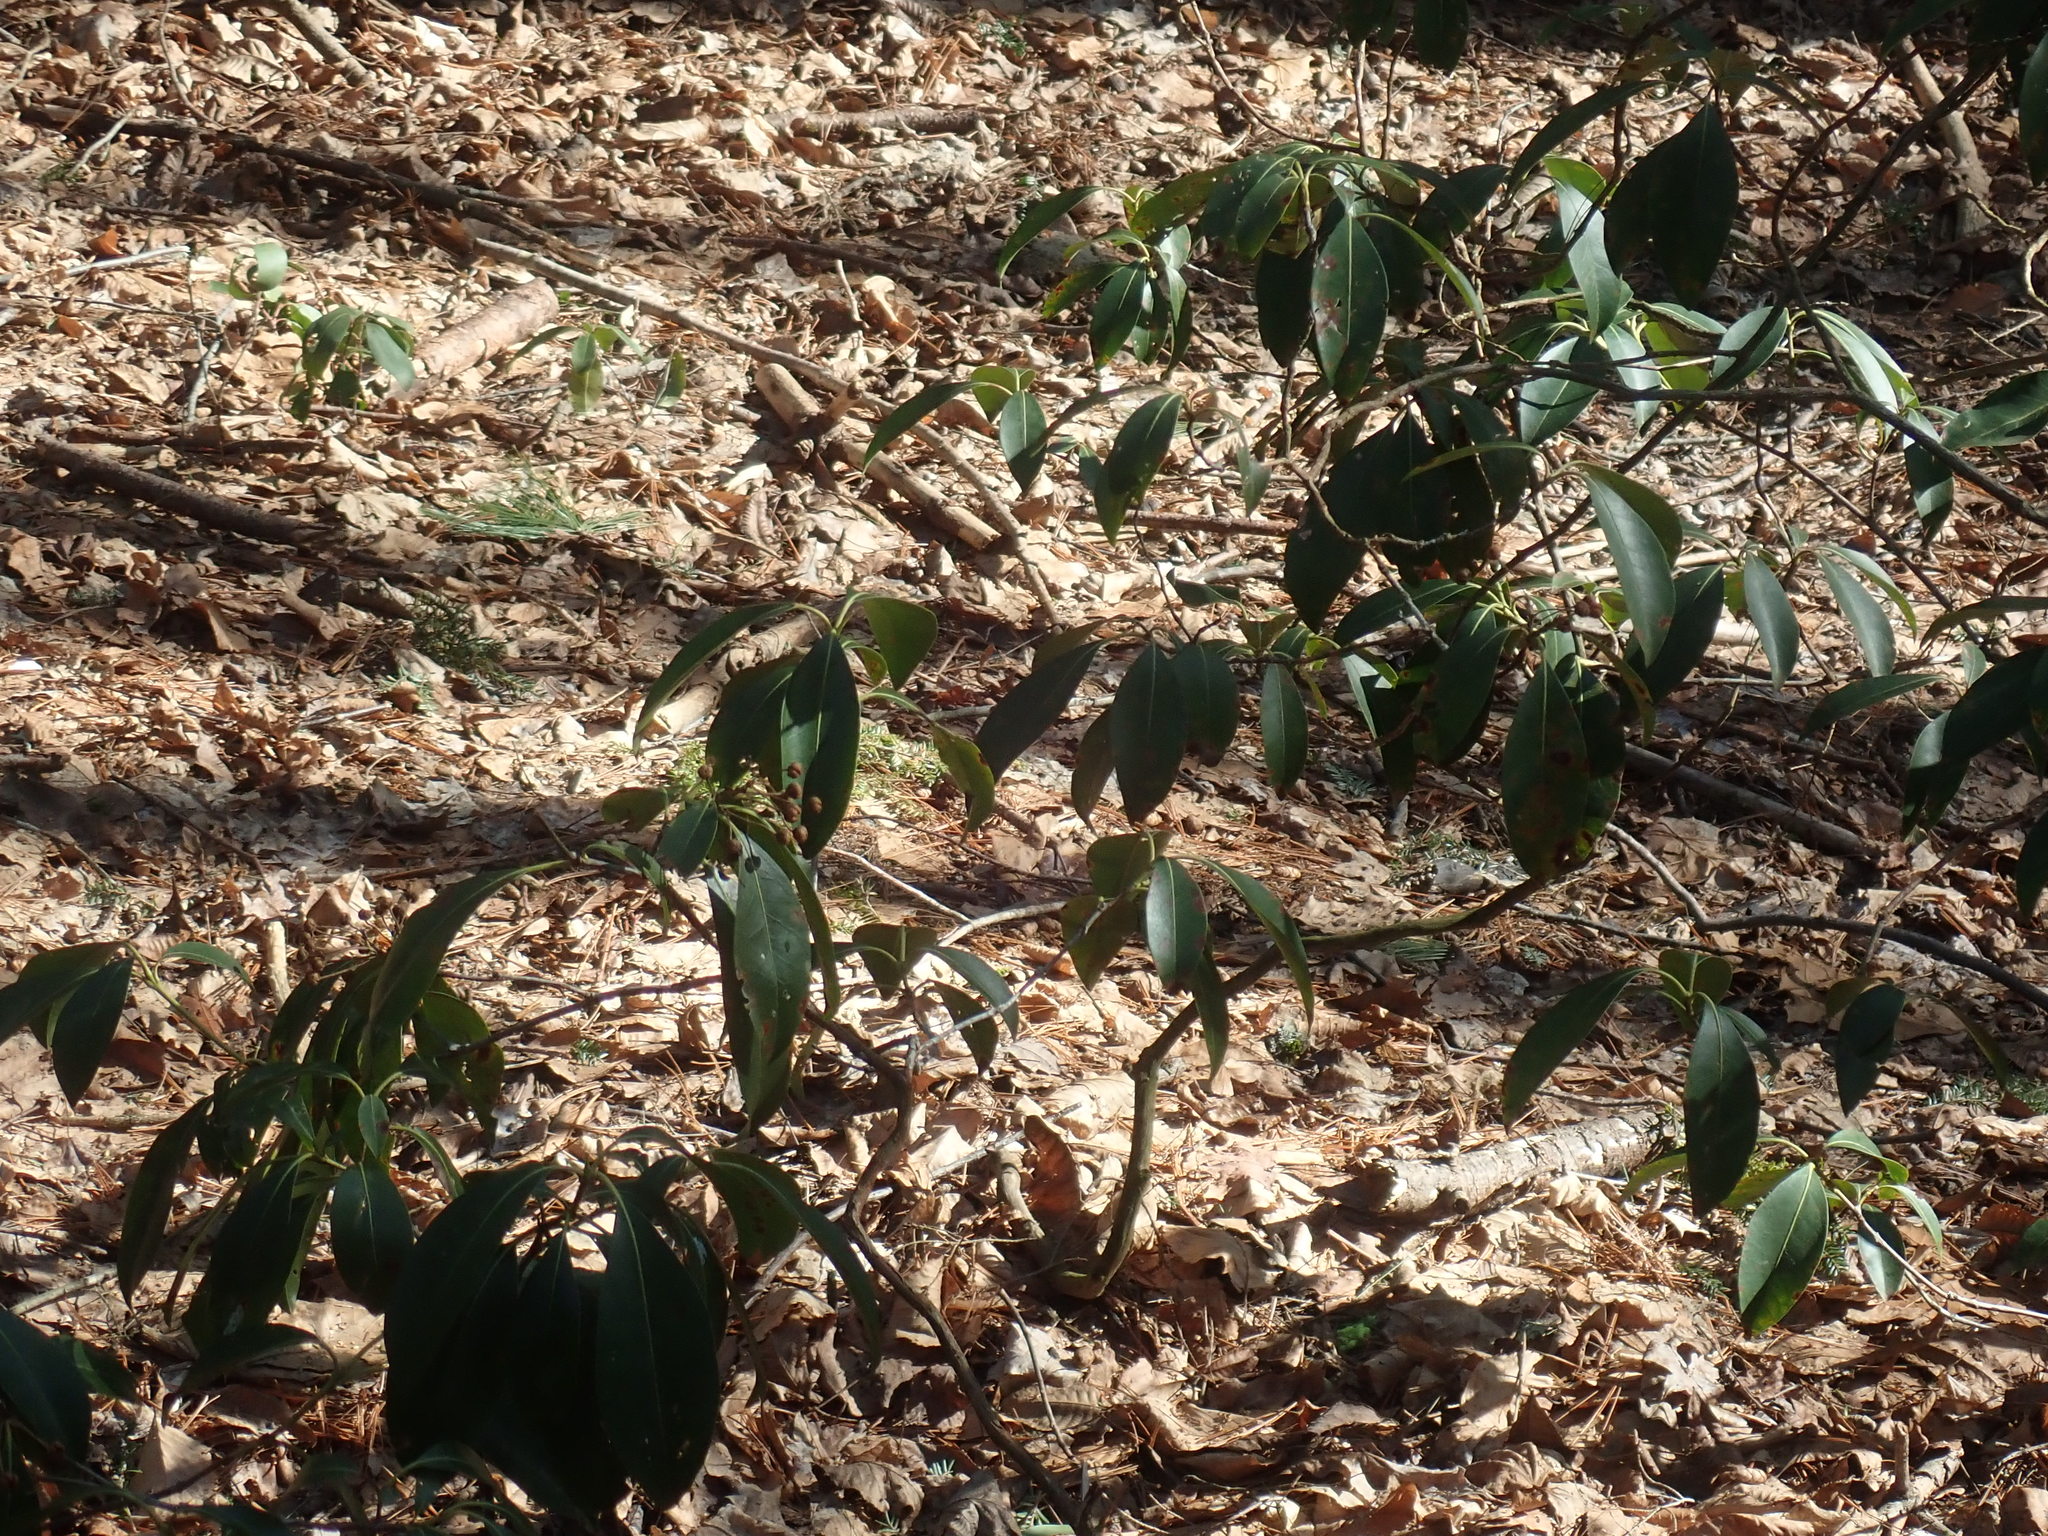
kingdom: Plantae
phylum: Tracheophyta
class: Magnoliopsida
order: Ericales
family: Ericaceae
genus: Kalmia
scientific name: Kalmia latifolia
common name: Mountain-laurel
